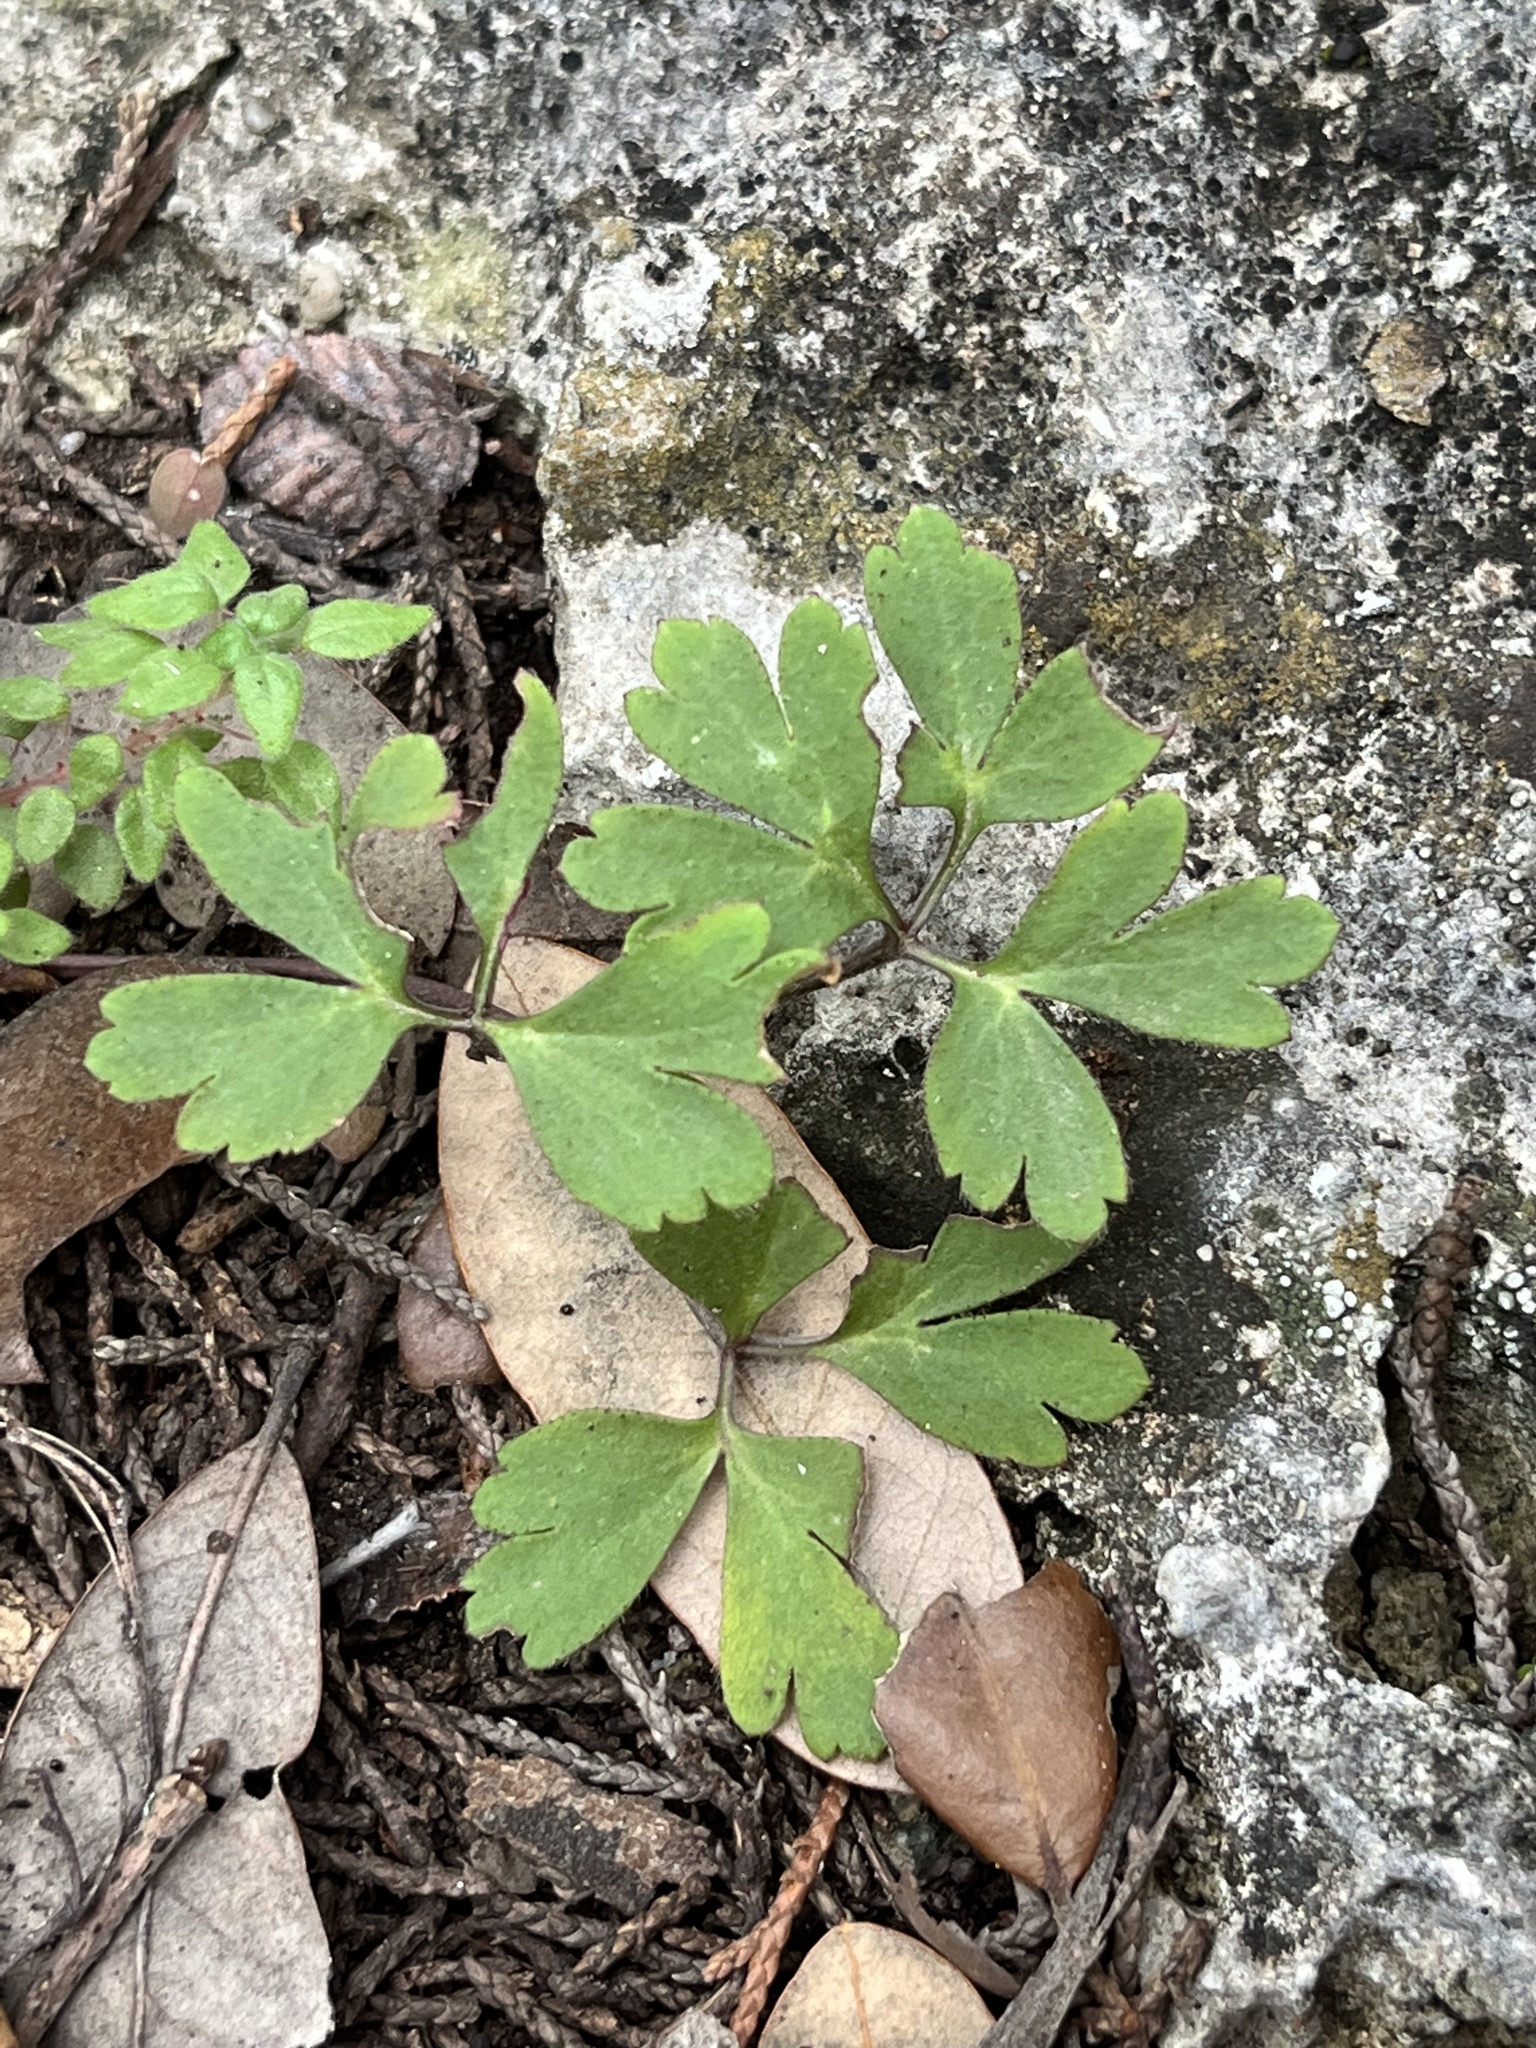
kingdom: Plantae
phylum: Tracheophyta
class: Magnoliopsida
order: Ranunculales
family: Ranunculaceae
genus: Anemone
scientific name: Anemone edwardsiana
